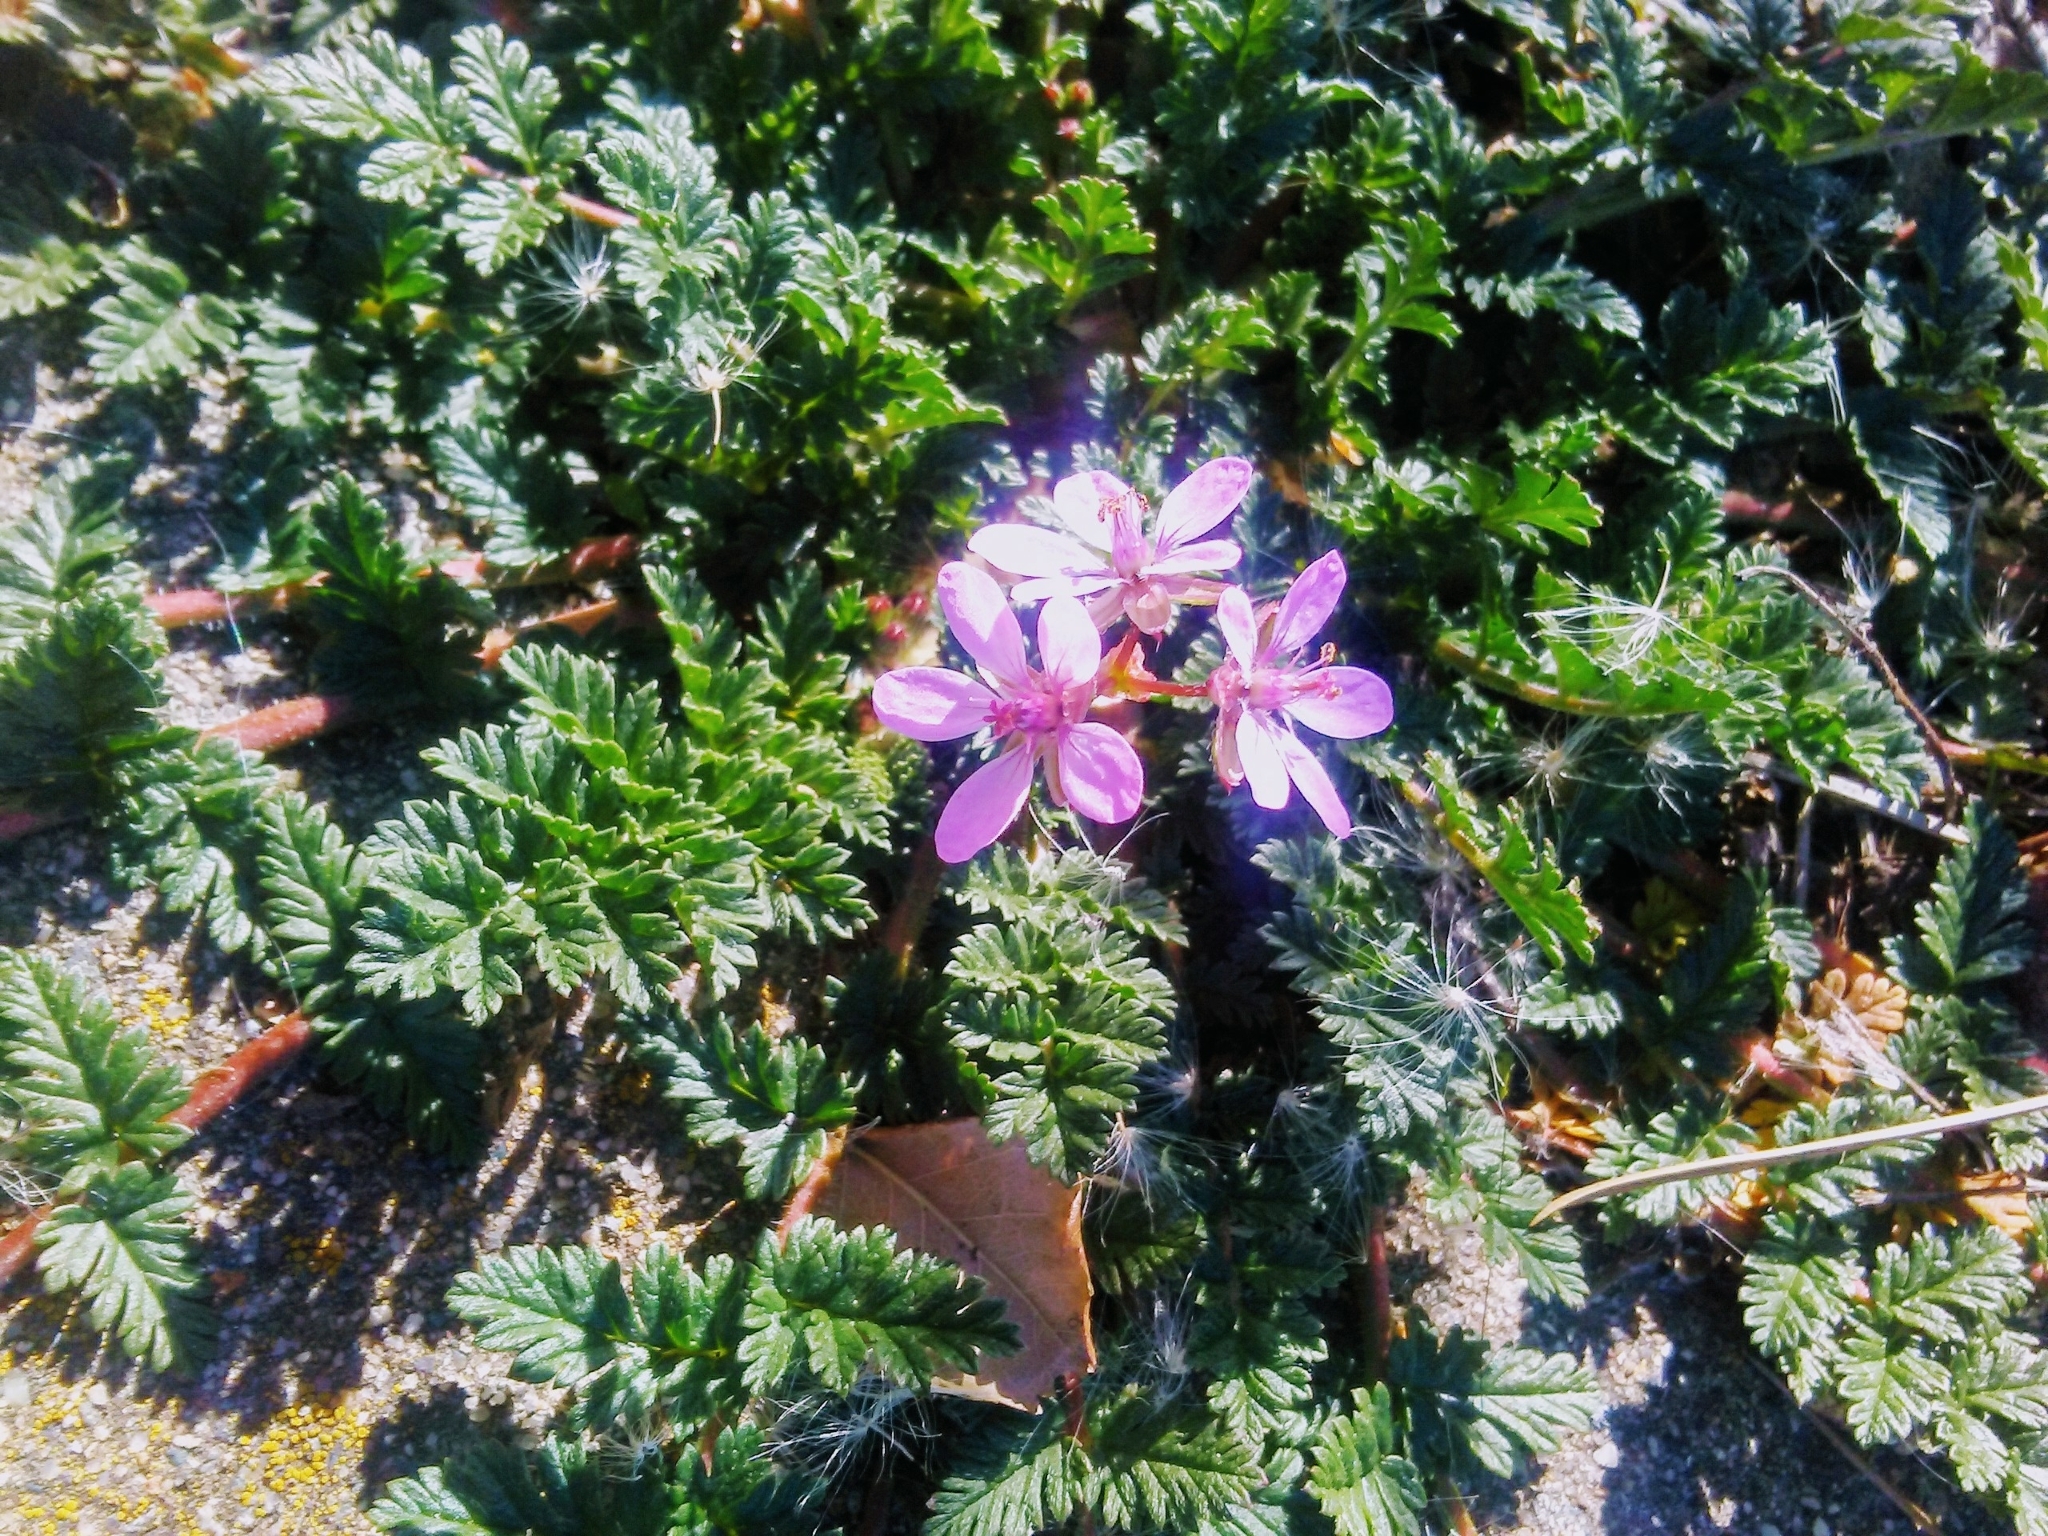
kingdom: Plantae
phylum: Tracheophyta
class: Magnoliopsida
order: Geraniales
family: Geraniaceae
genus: Erodium
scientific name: Erodium cicutarium
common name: Common stork's-bill
